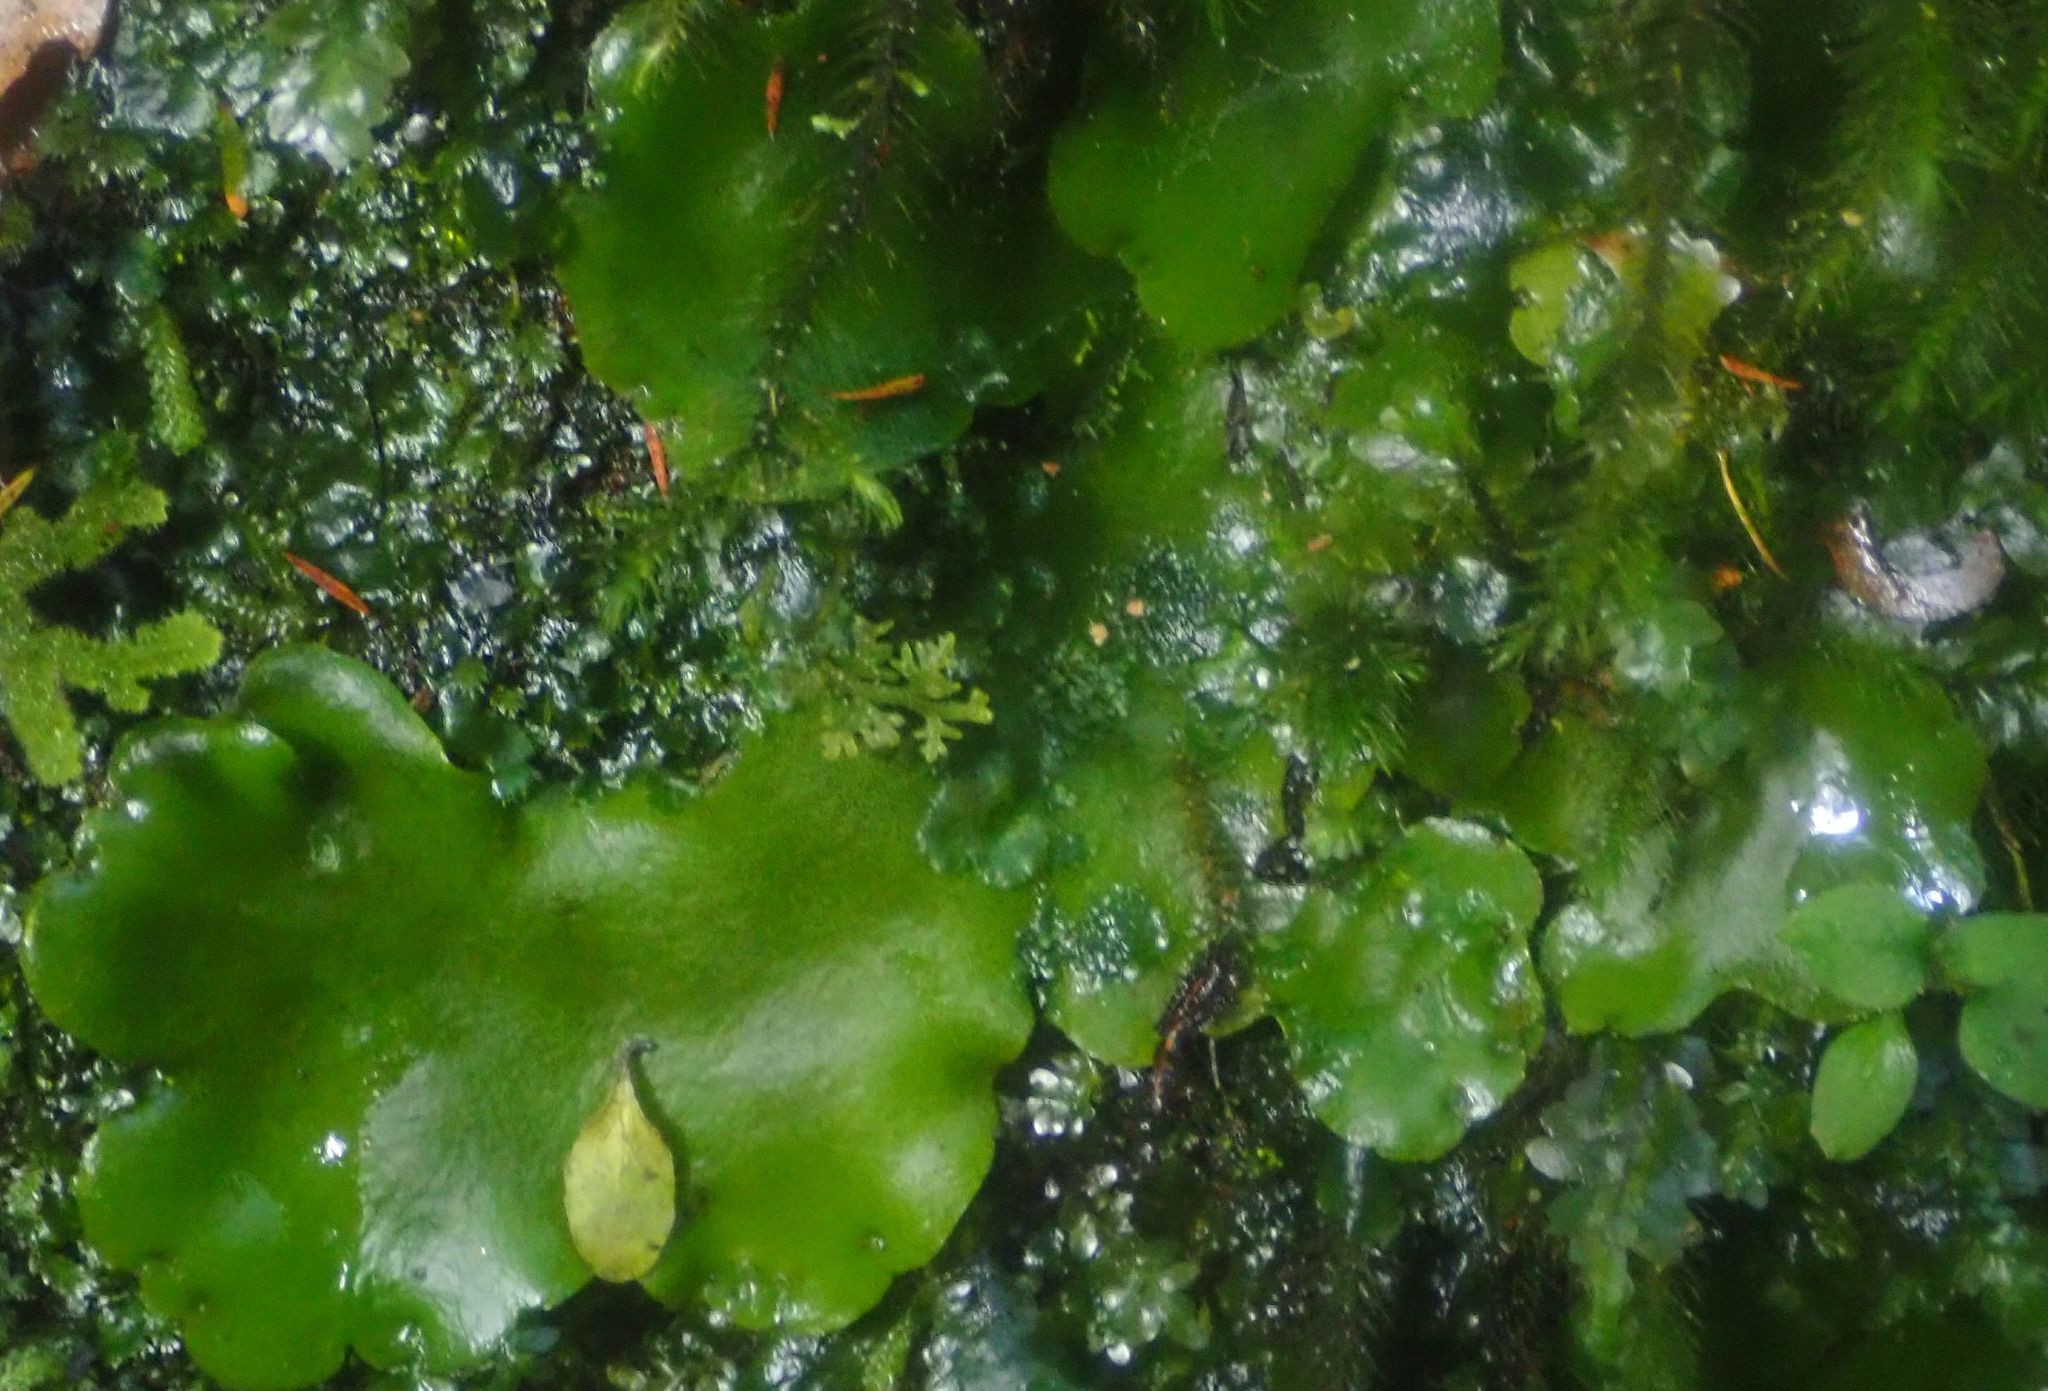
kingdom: Plantae
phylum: Marchantiophyta
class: Marchantiopsida
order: Marchantiales
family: Monocleaceae
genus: Monoclea
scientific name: Monoclea forsteri
